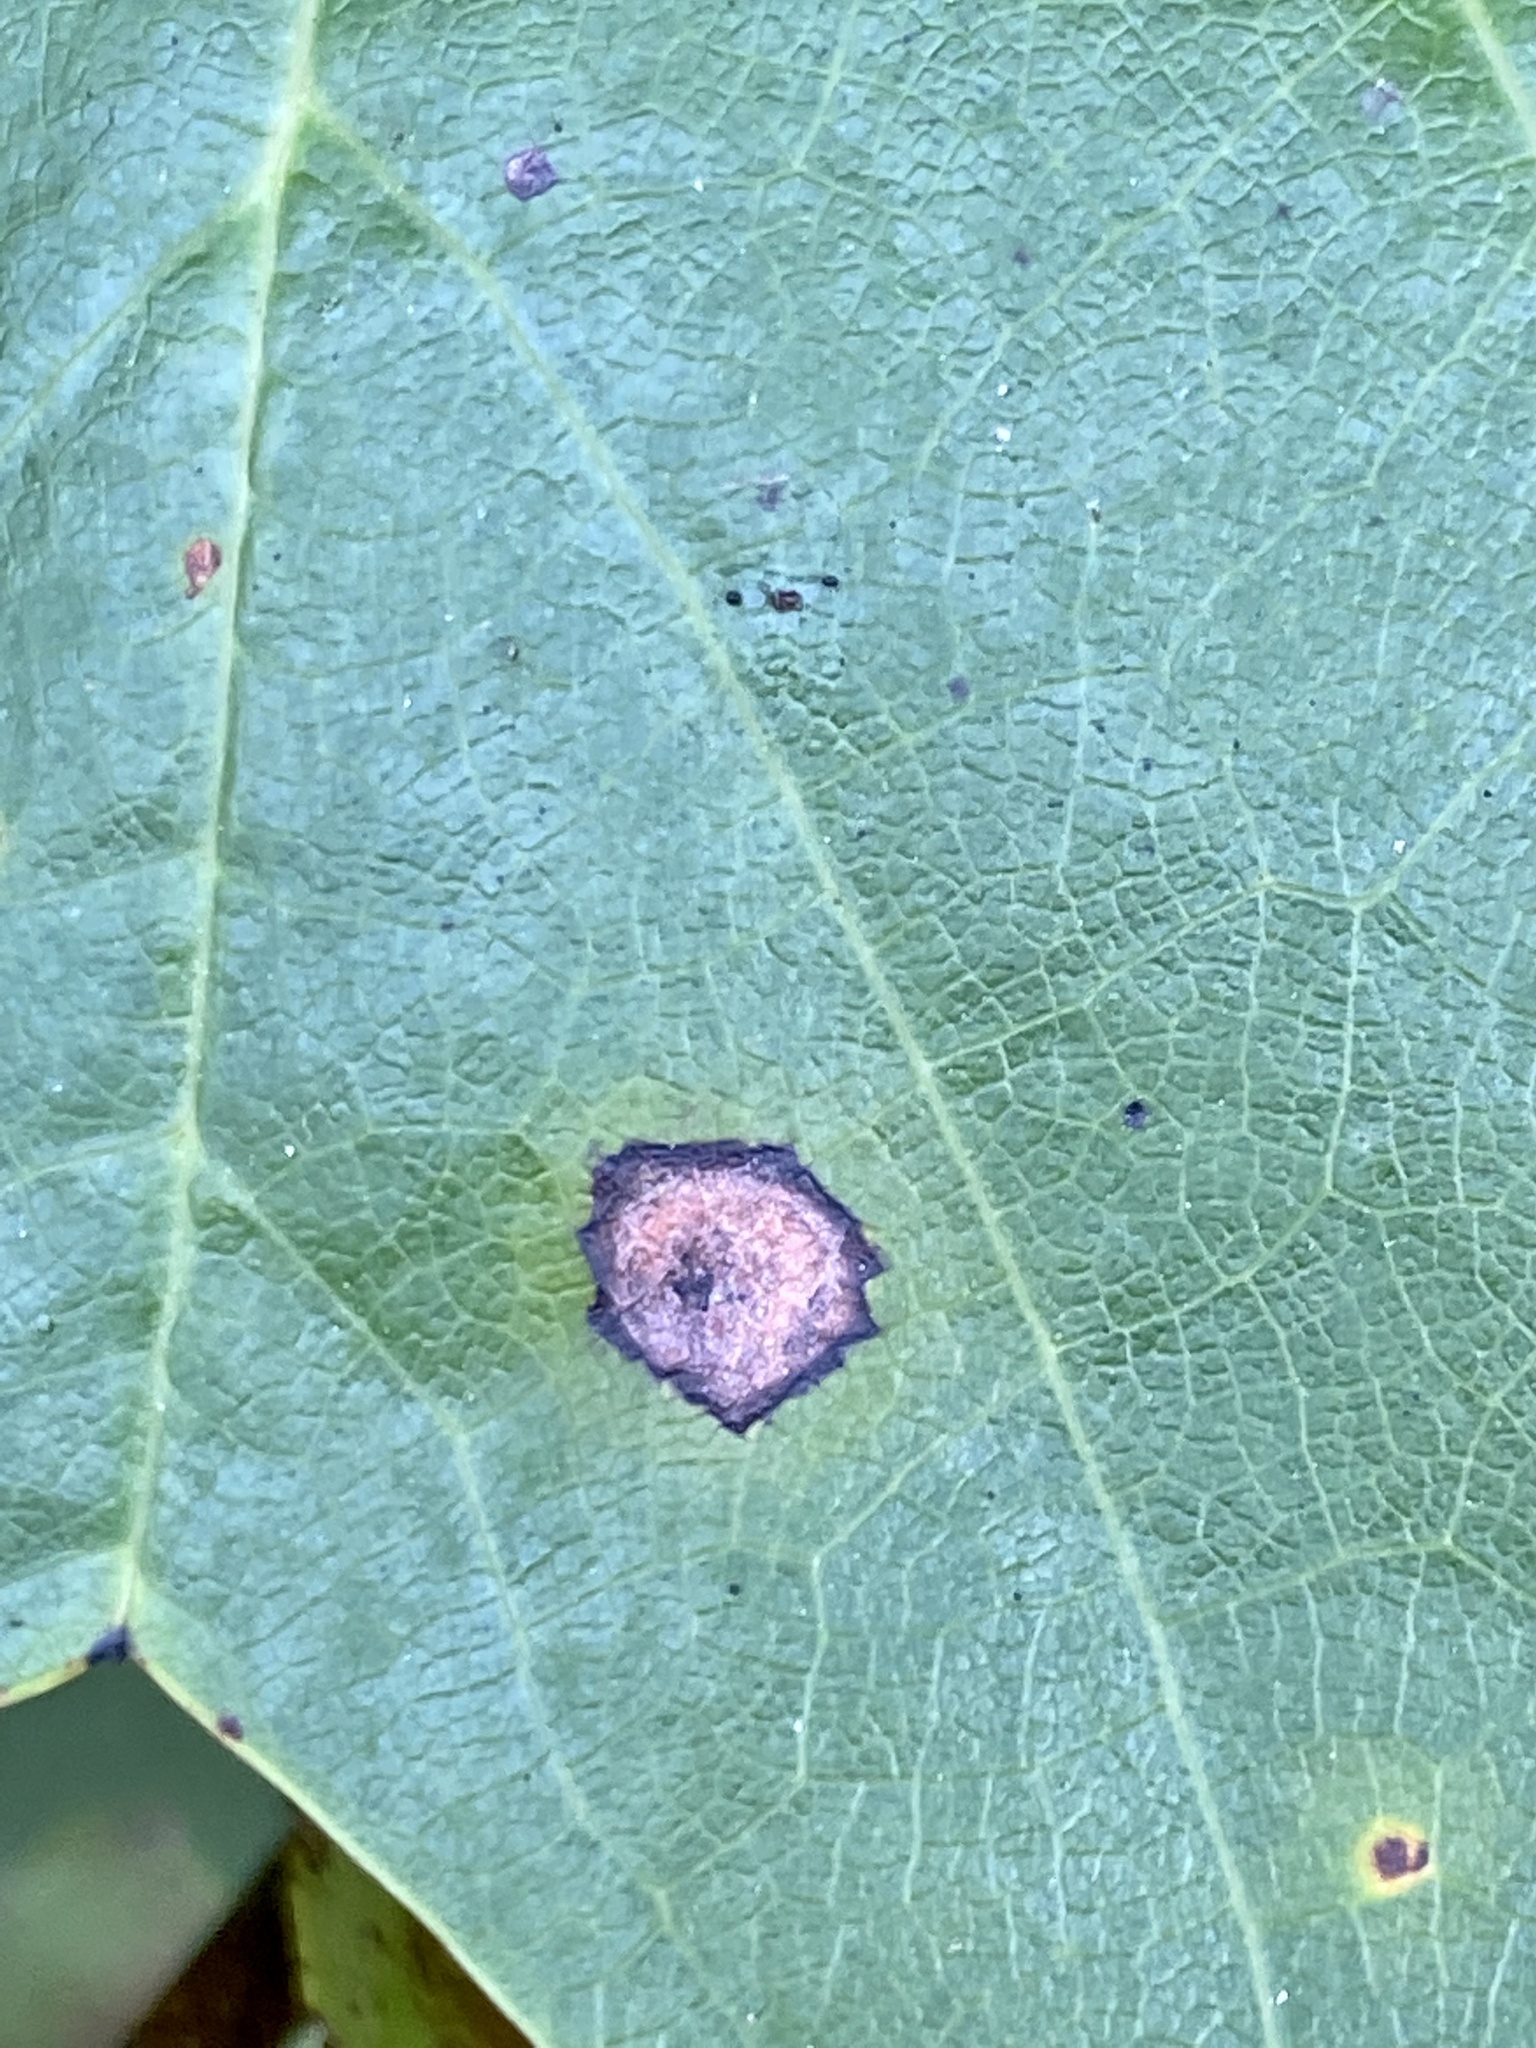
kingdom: Animalia
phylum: Arthropoda
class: Insecta
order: Diptera
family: Cecidomyiidae
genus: Resseliella
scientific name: Resseliella liriodendri
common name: Tulip tree leaf spot gall midge
